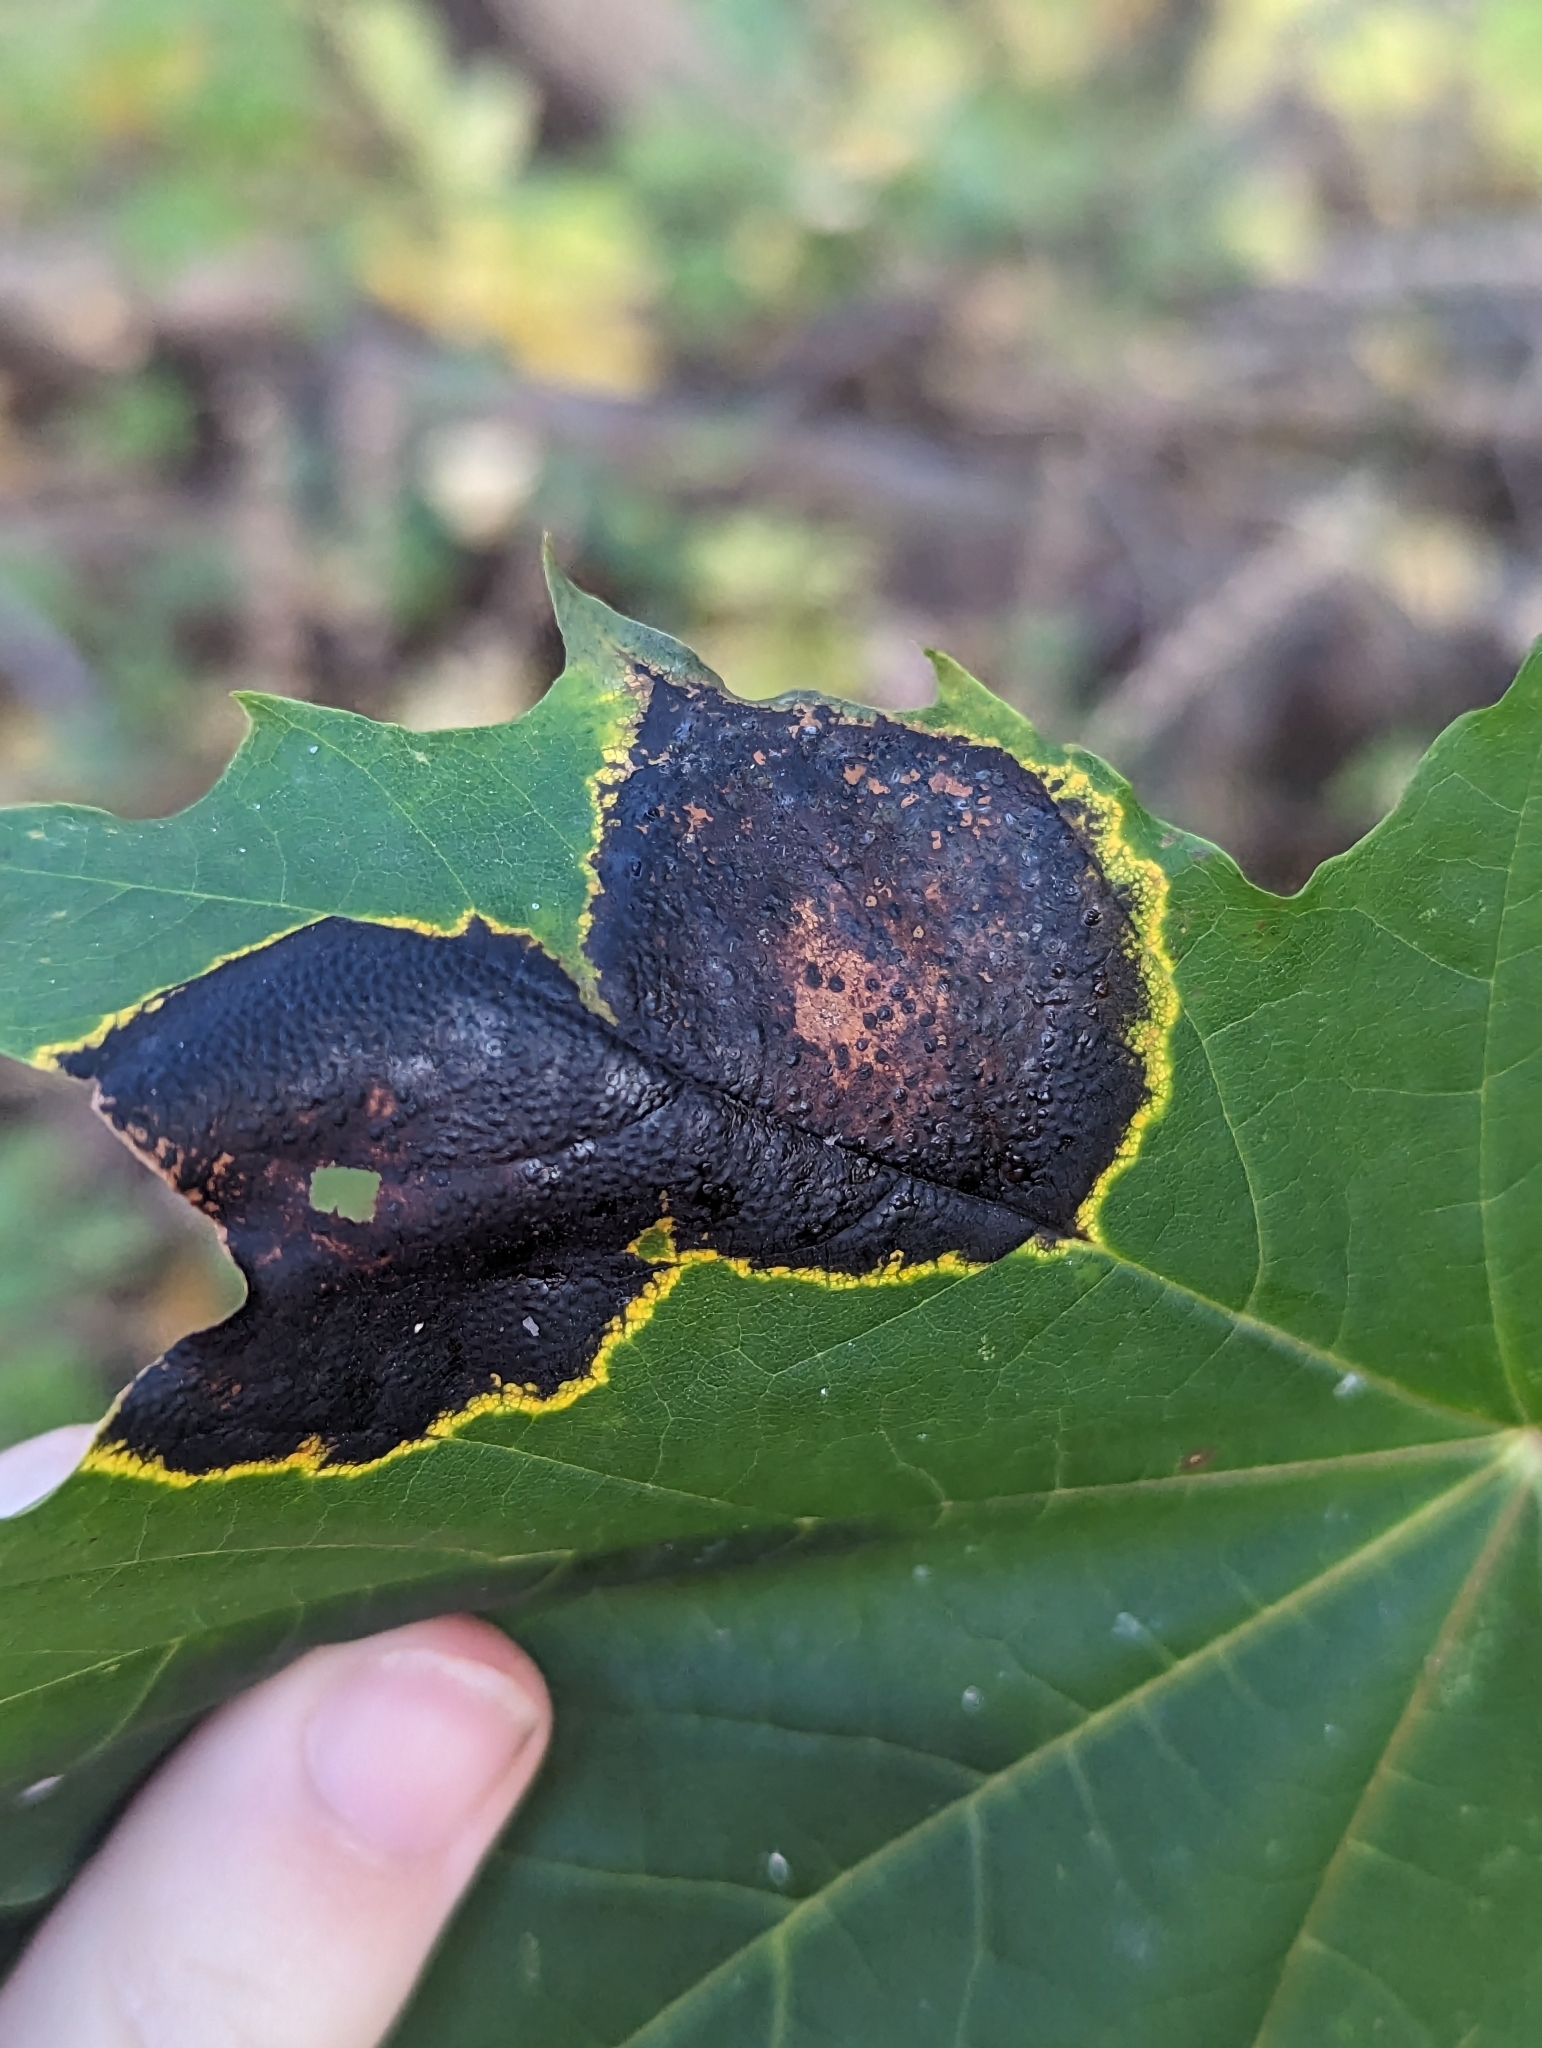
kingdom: Fungi
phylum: Ascomycota
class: Leotiomycetes
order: Rhytismatales
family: Rhytismataceae
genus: Rhytisma
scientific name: Rhytisma acerinum
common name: European tar spot
